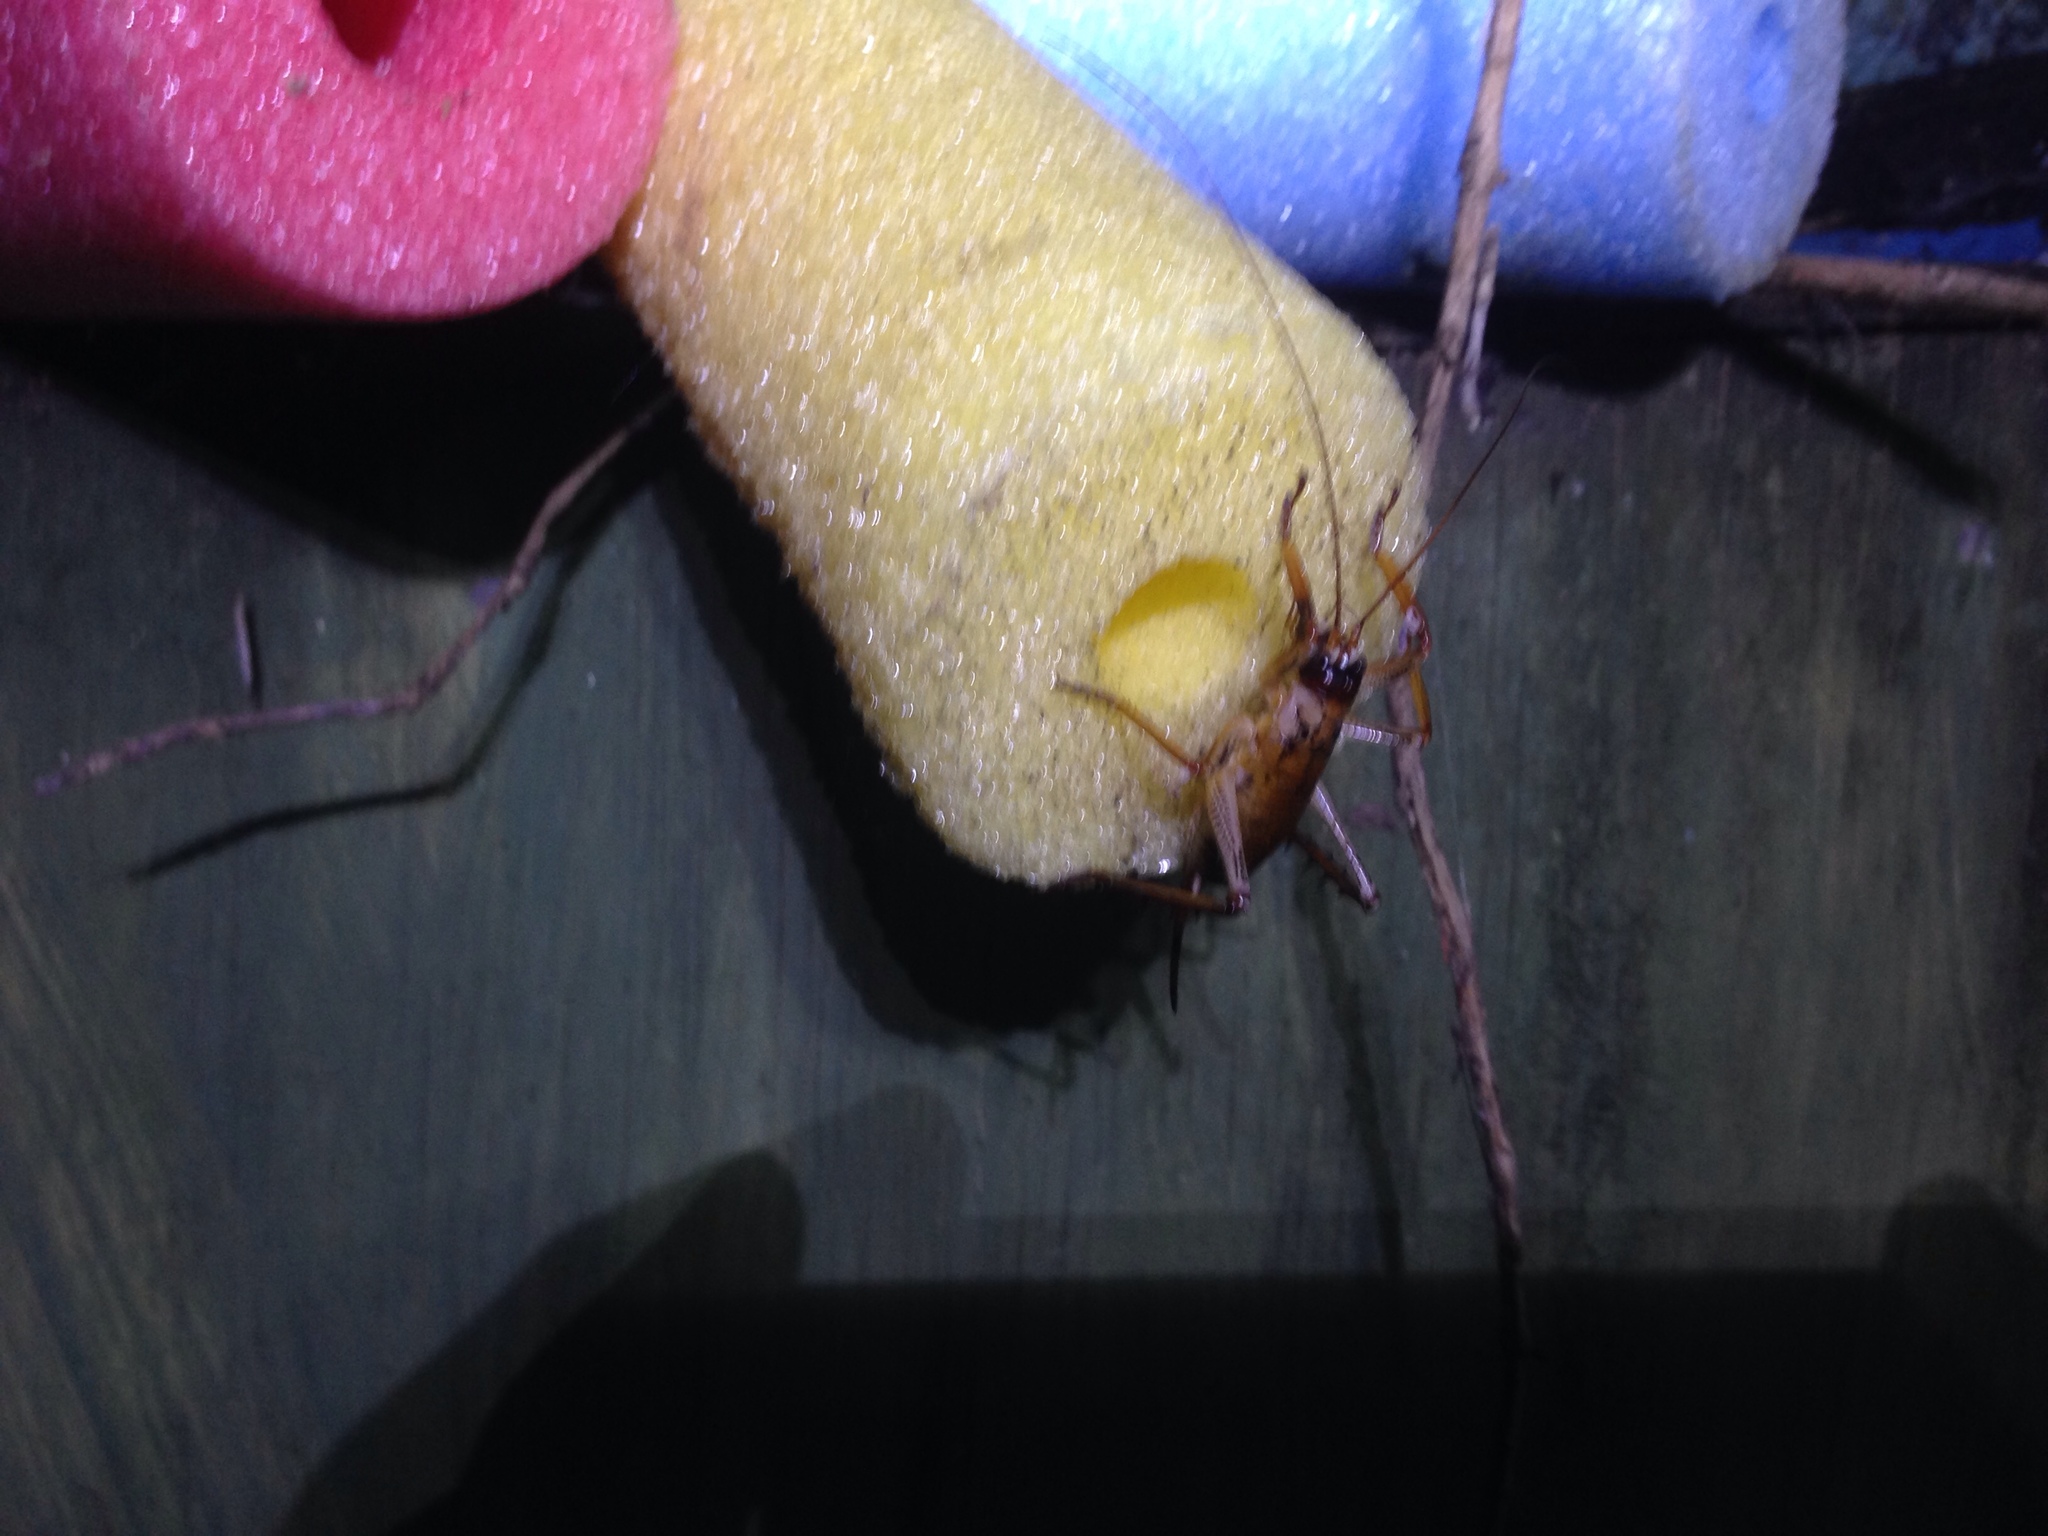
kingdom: Animalia
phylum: Arthropoda
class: Insecta
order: Orthoptera
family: Anostostomatidae
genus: Hemideina
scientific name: Hemideina thoracica
